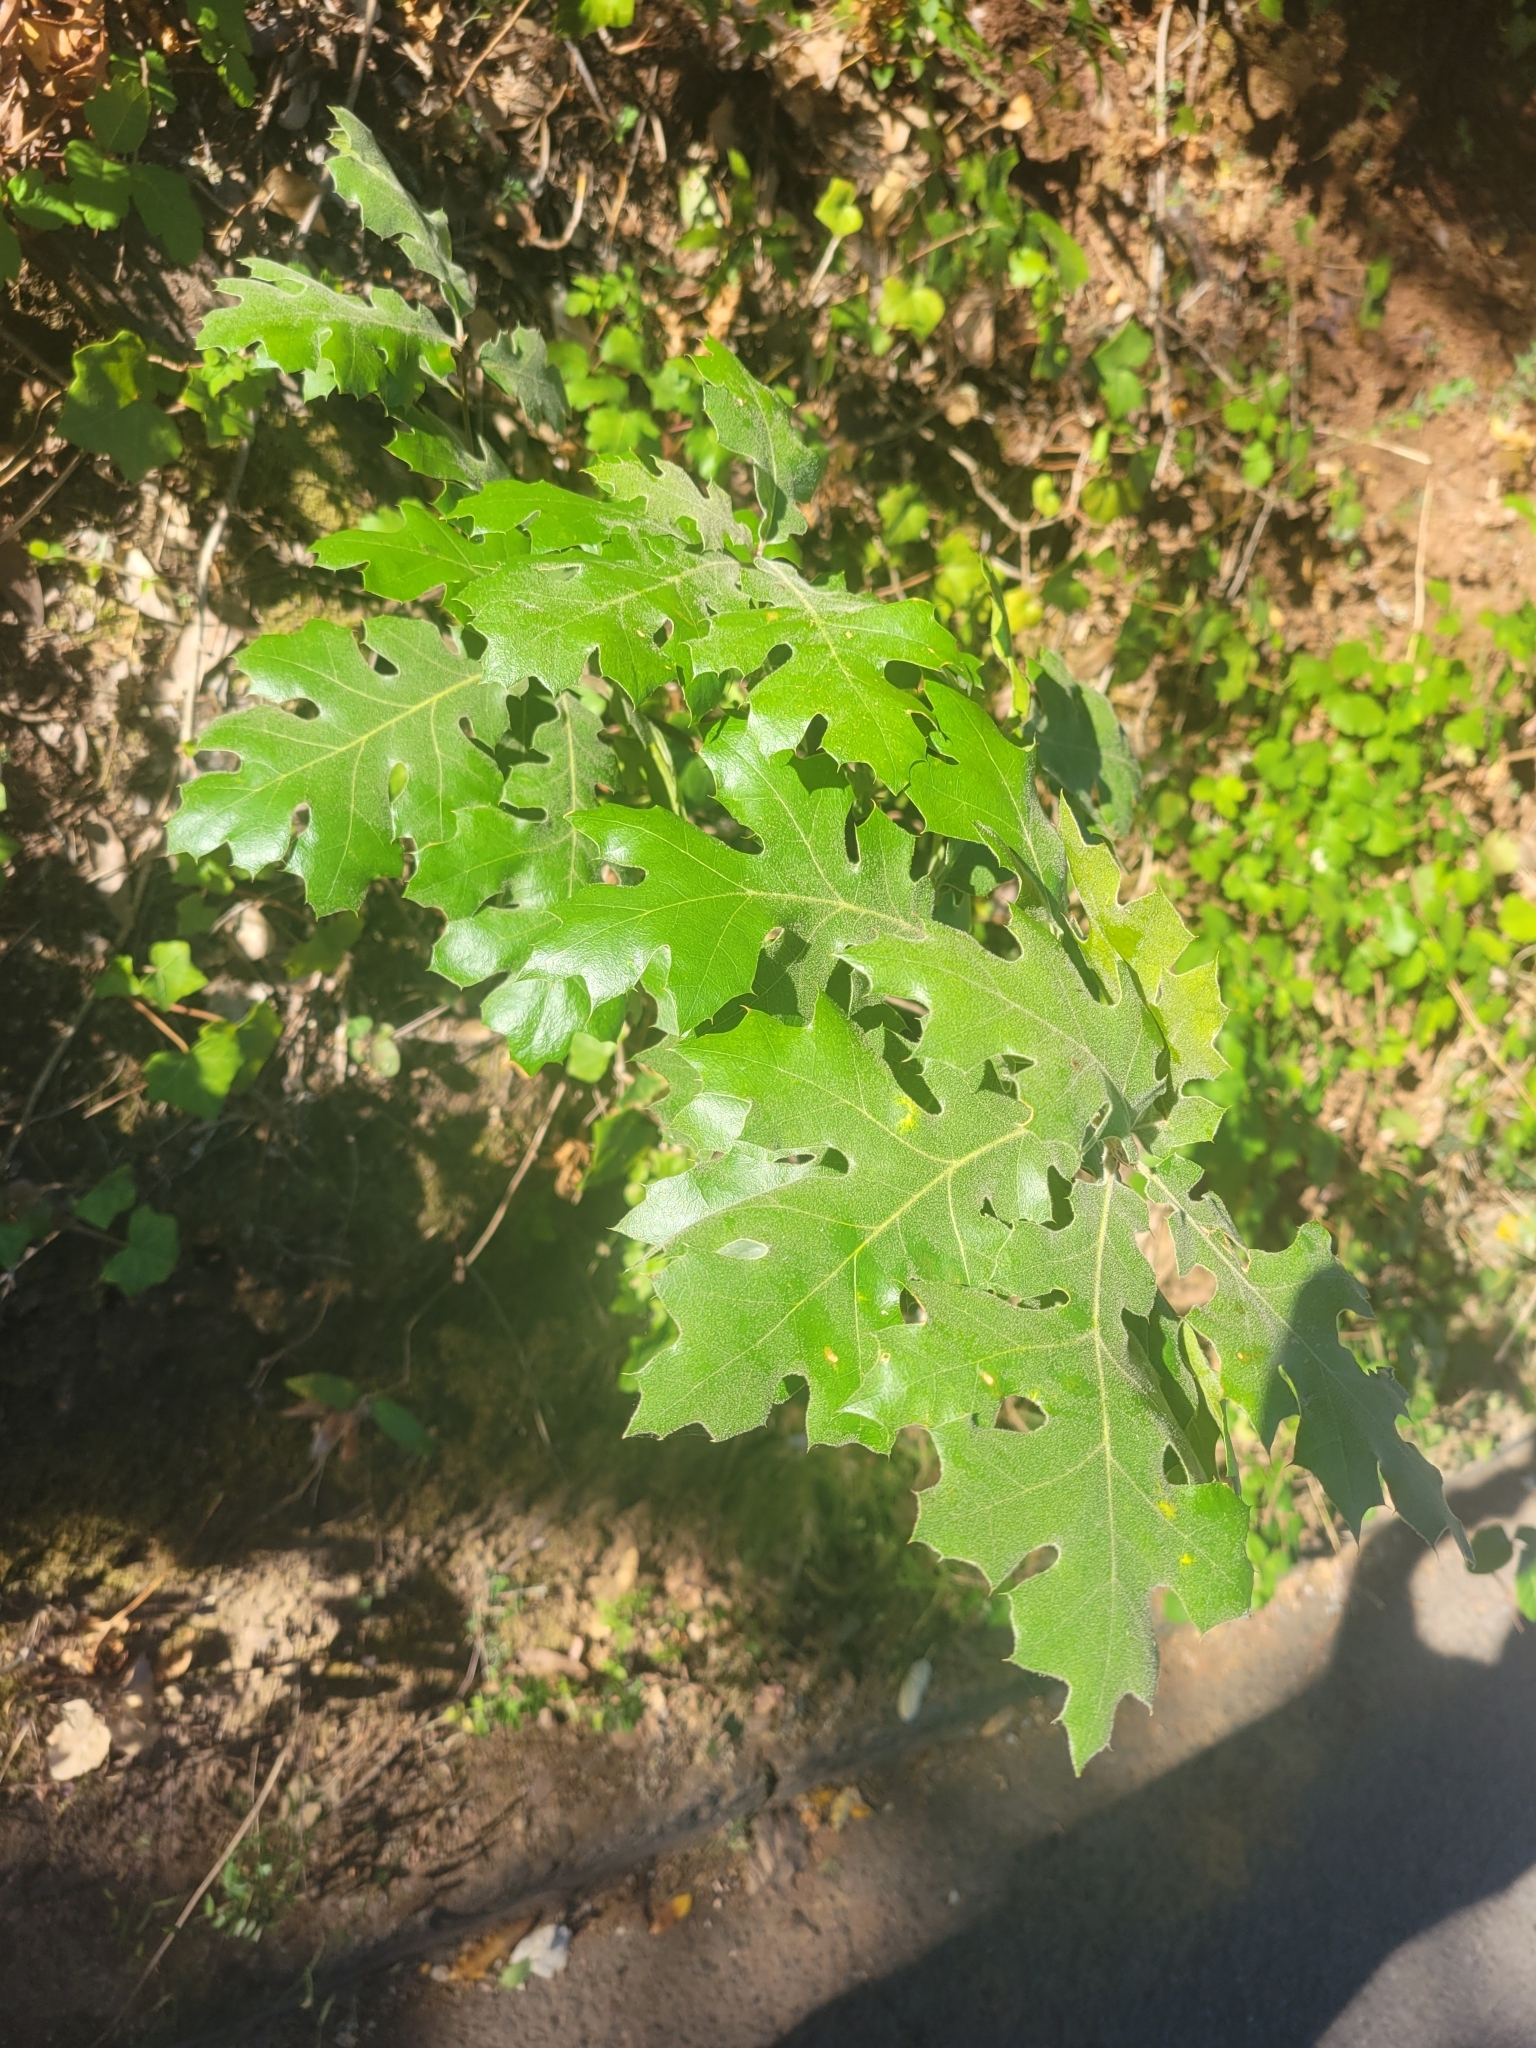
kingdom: Plantae
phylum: Tracheophyta
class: Magnoliopsida
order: Fagales
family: Fagaceae
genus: Quercus
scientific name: Quercus kelloggii
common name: California black oak
